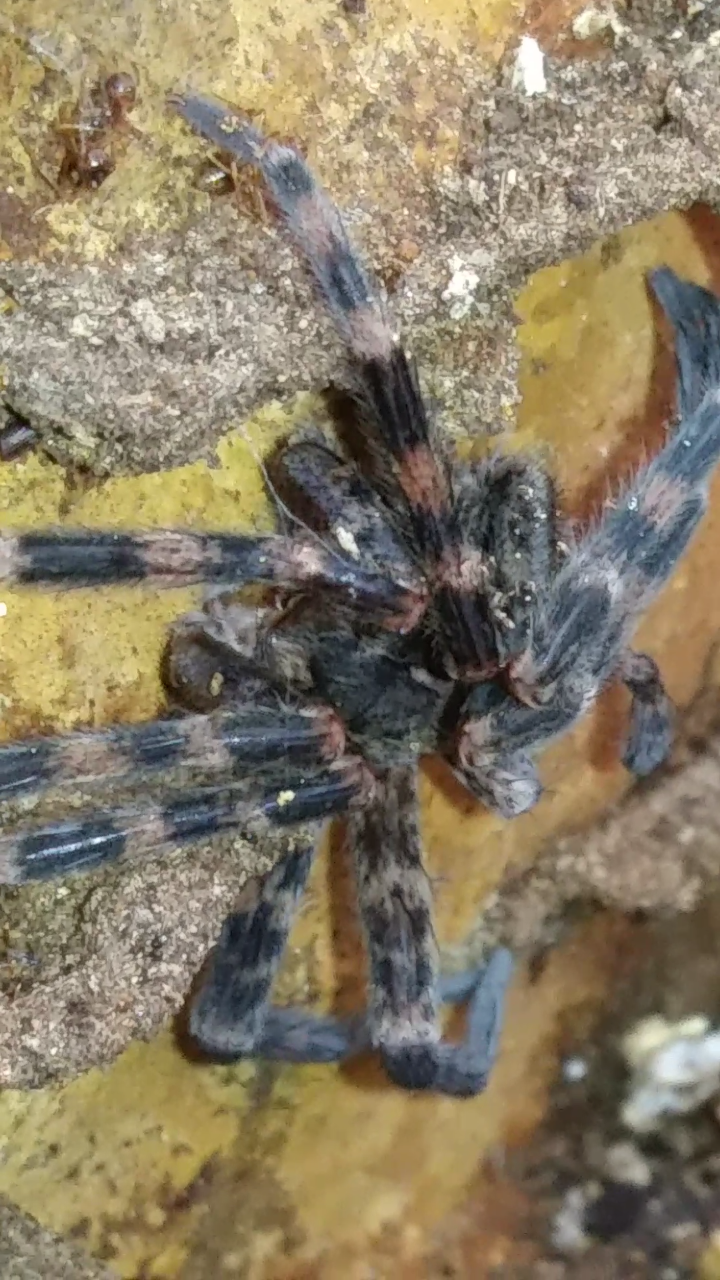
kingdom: Animalia
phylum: Arthropoda
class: Arachnida
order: Araneae
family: Pisauridae
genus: Dolomedes
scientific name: Dolomedes tenebrosus
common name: Dark fishing spider
